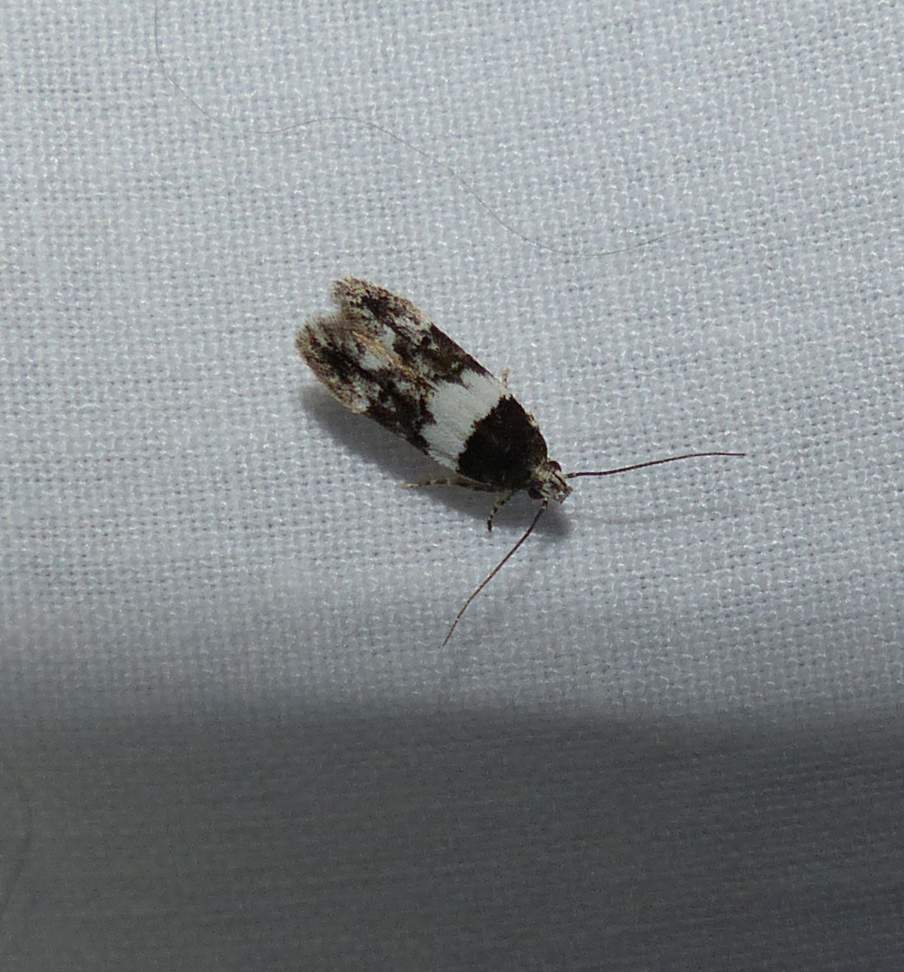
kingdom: Animalia
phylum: Arthropoda
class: Insecta
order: Lepidoptera
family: Gelechiidae
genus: Pubitelphusa
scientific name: Pubitelphusa latifasciella
